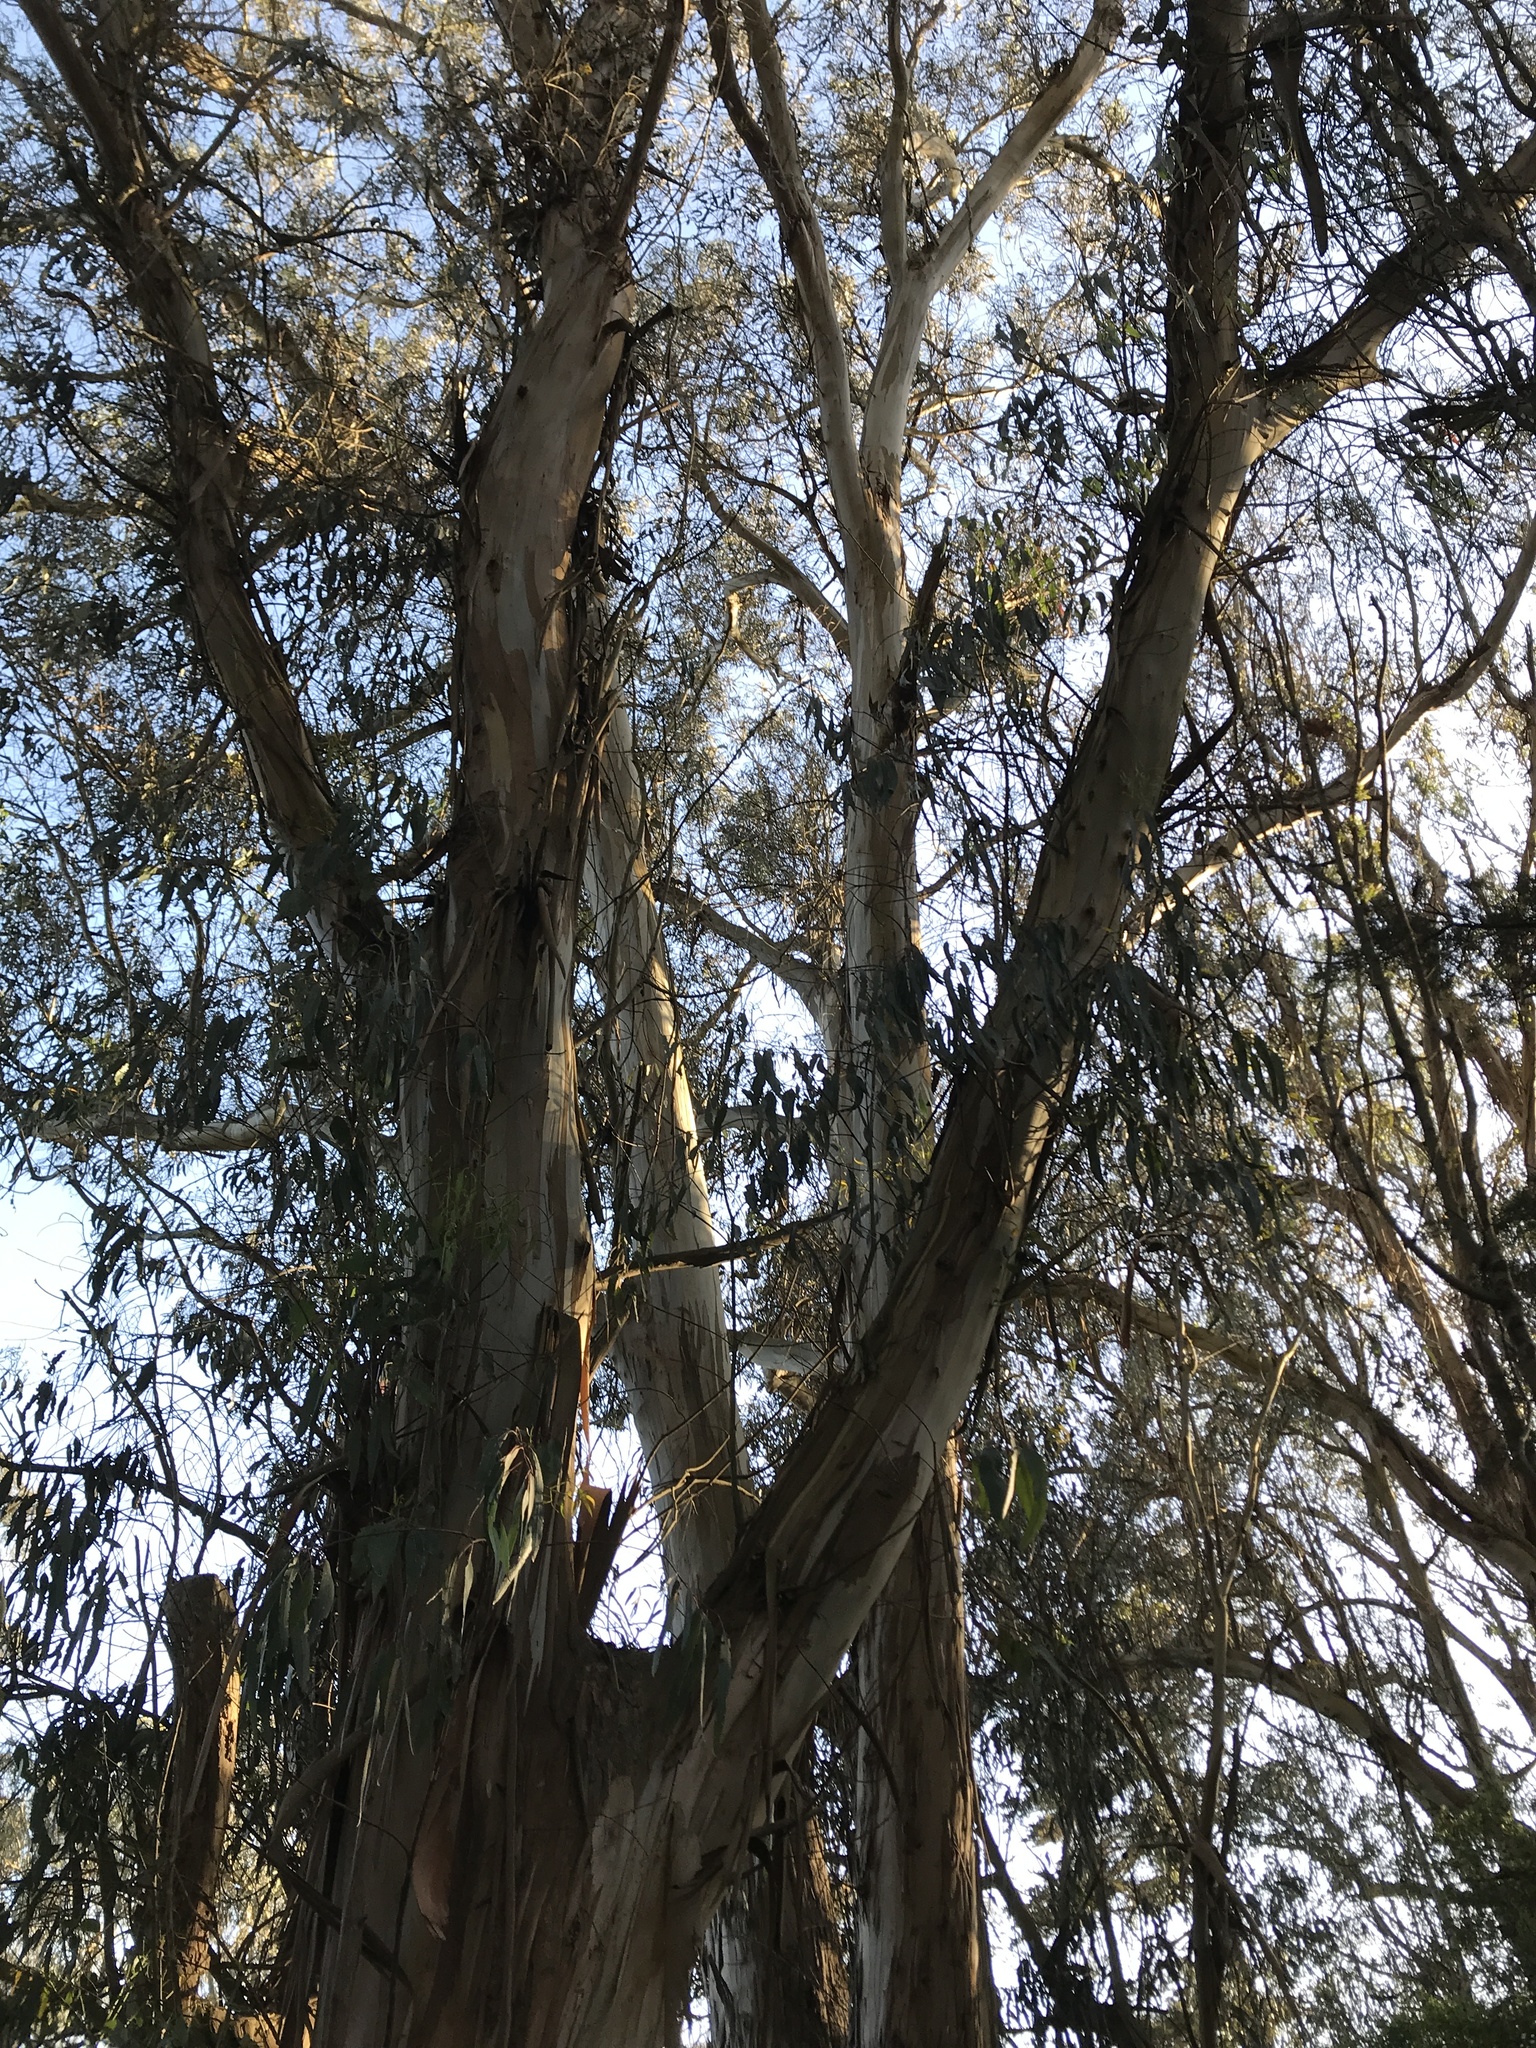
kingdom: Plantae
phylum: Tracheophyta
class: Magnoliopsida
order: Myrtales
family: Myrtaceae
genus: Eucalyptus
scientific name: Eucalyptus globulus
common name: Southern blue-gum
